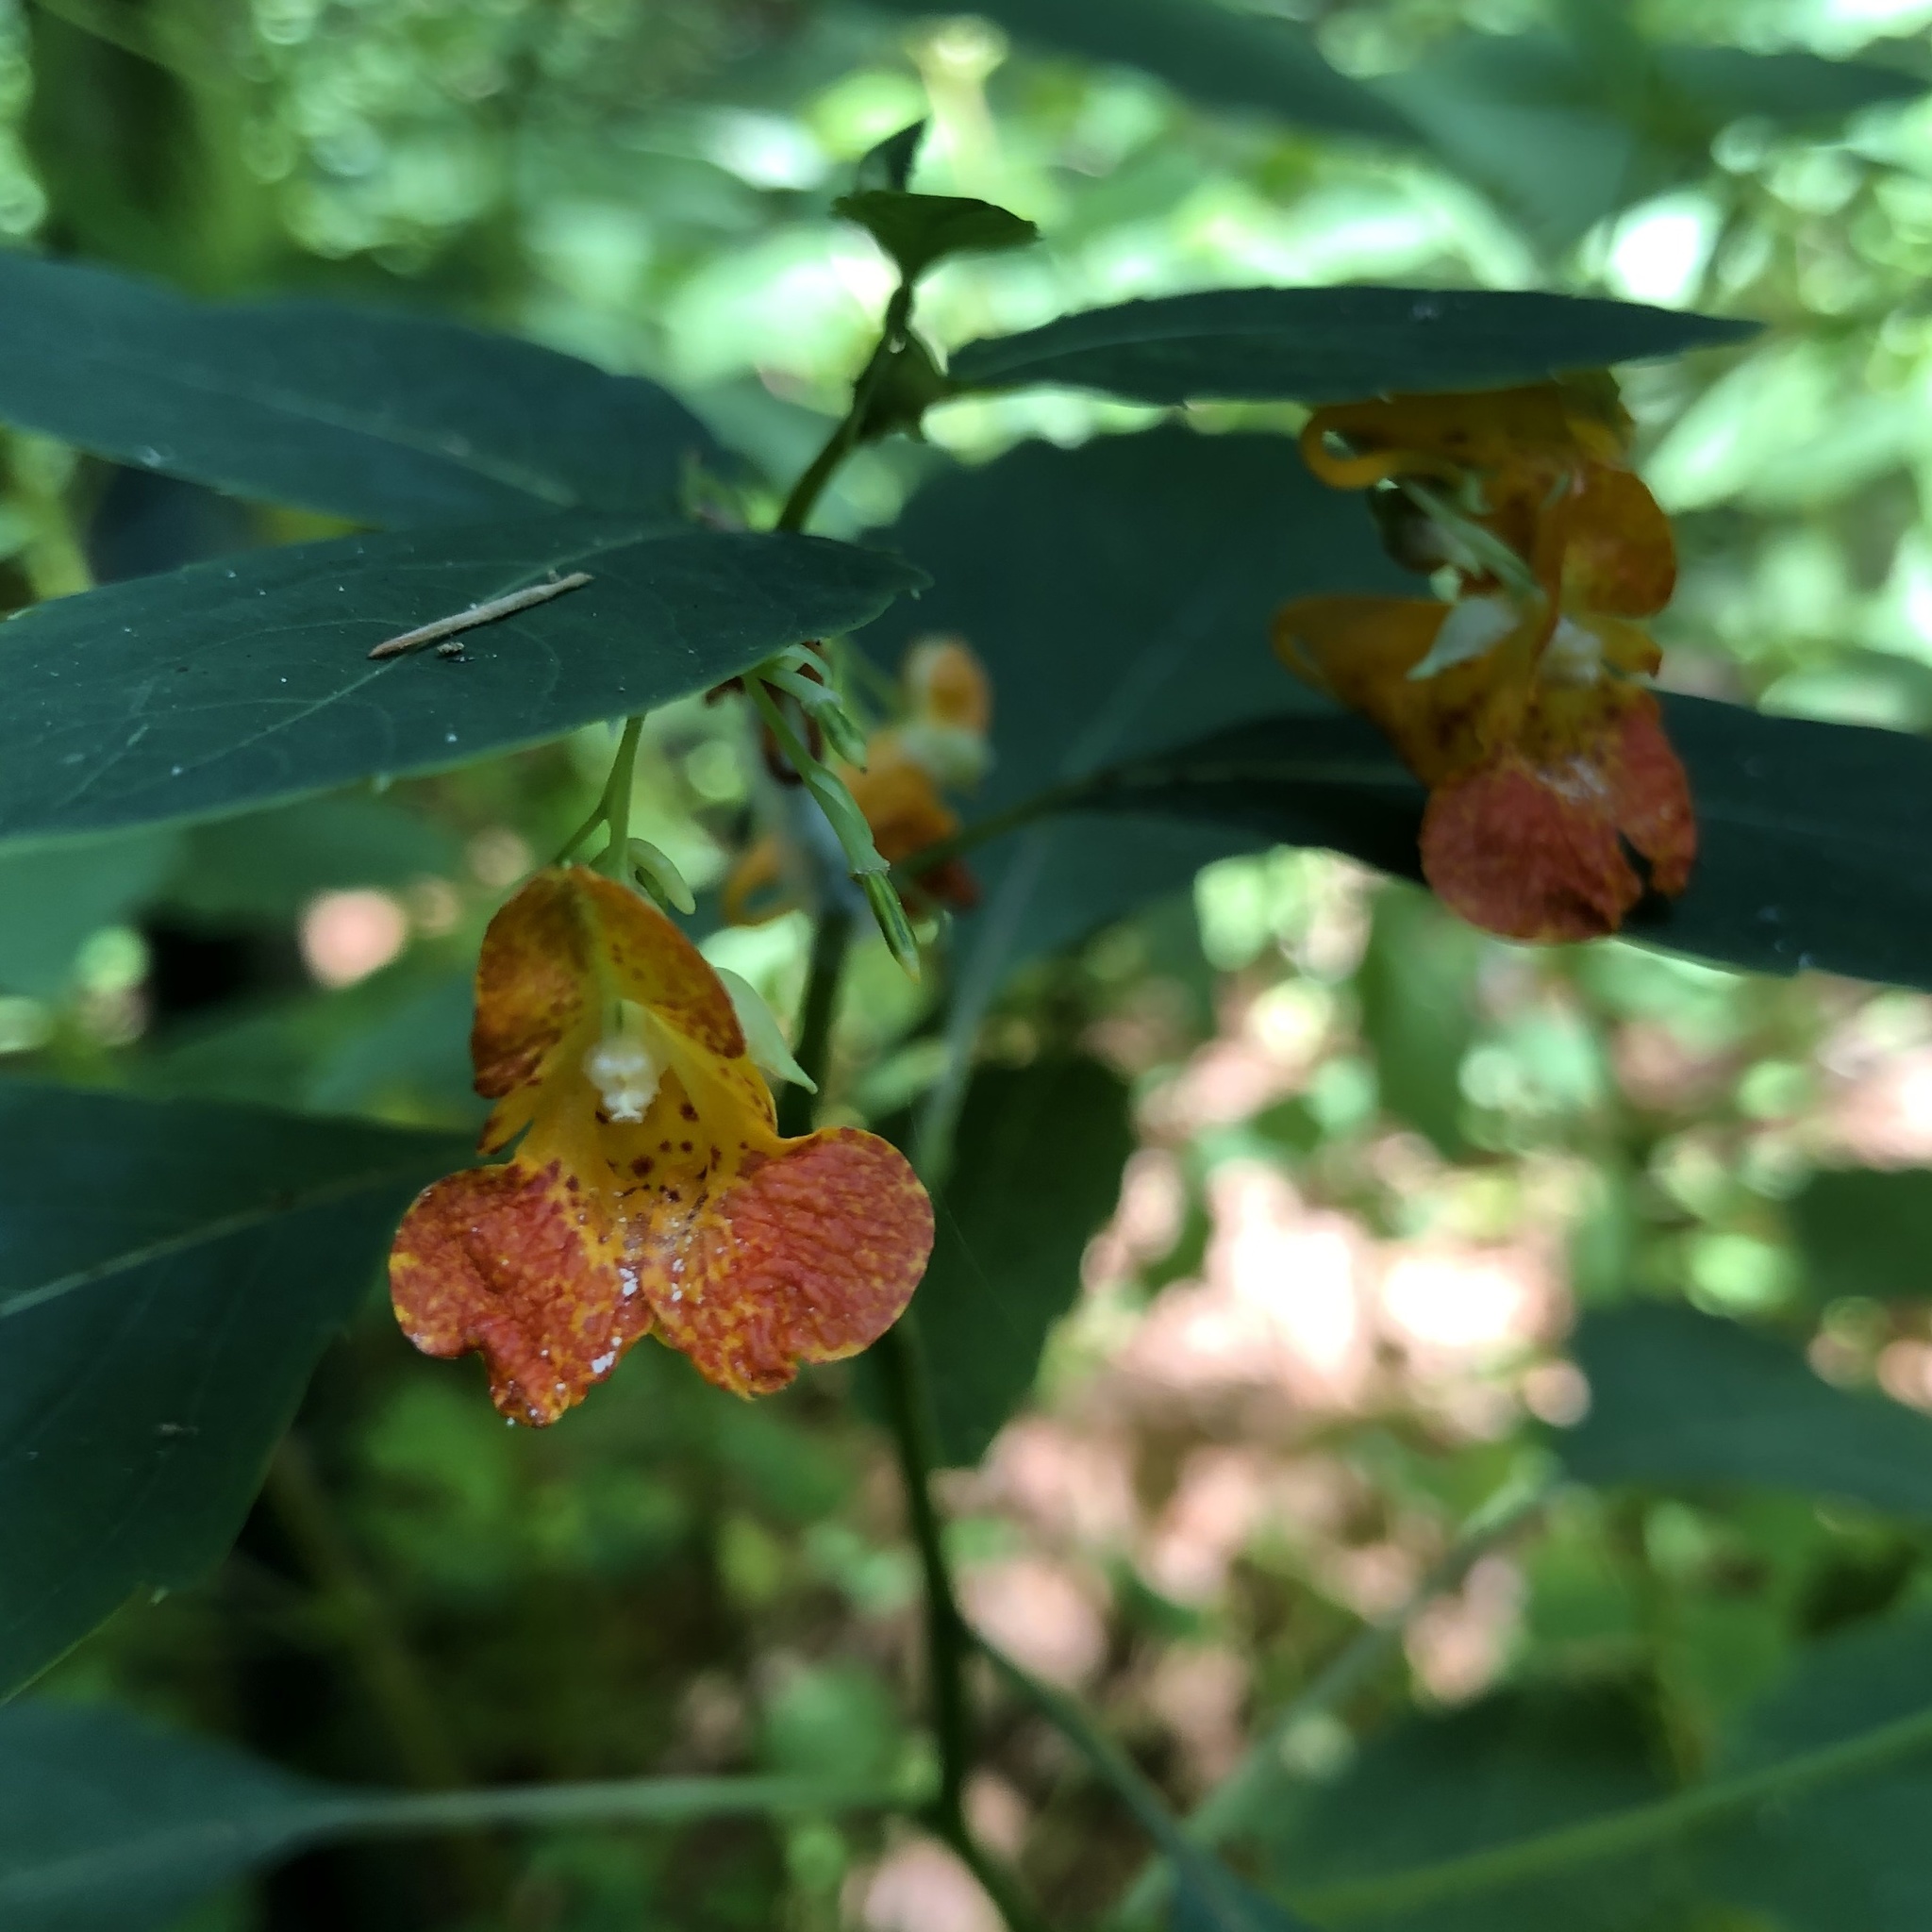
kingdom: Plantae
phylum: Tracheophyta
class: Magnoliopsida
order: Ericales
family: Balsaminaceae
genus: Impatiens
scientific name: Impatiens capensis
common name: Orange balsam
